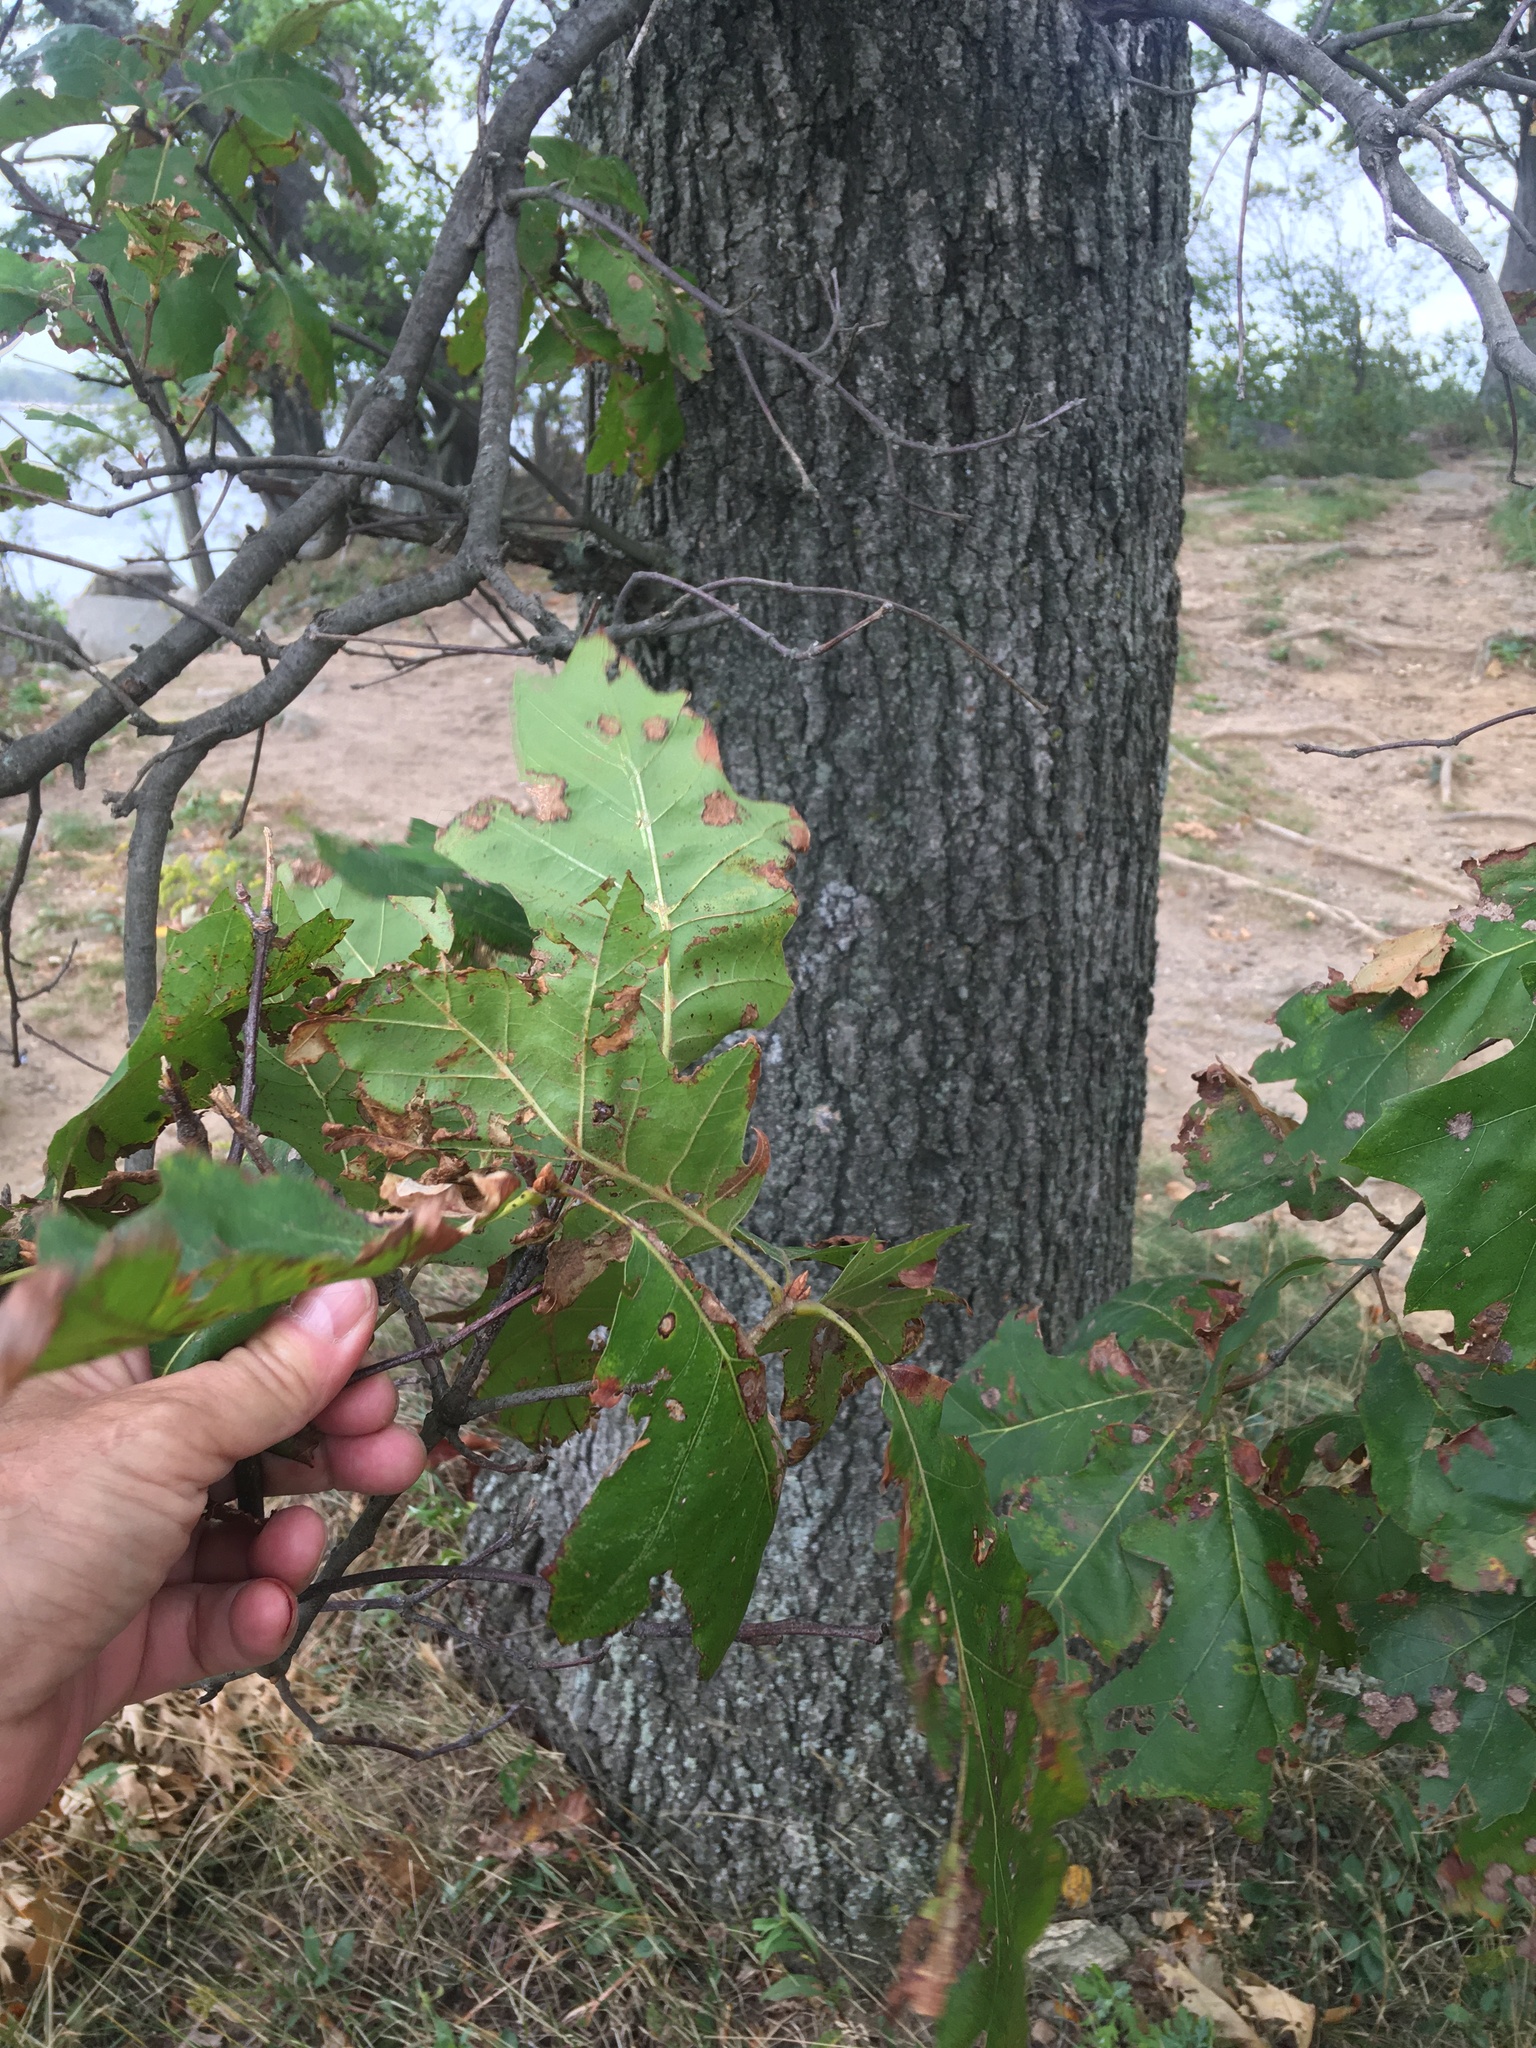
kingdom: Plantae
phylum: Tracheophyta
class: Magnoliopsida
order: Fagales
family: Fagaceae
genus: Quercus
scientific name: Quercus hawkinsiae
